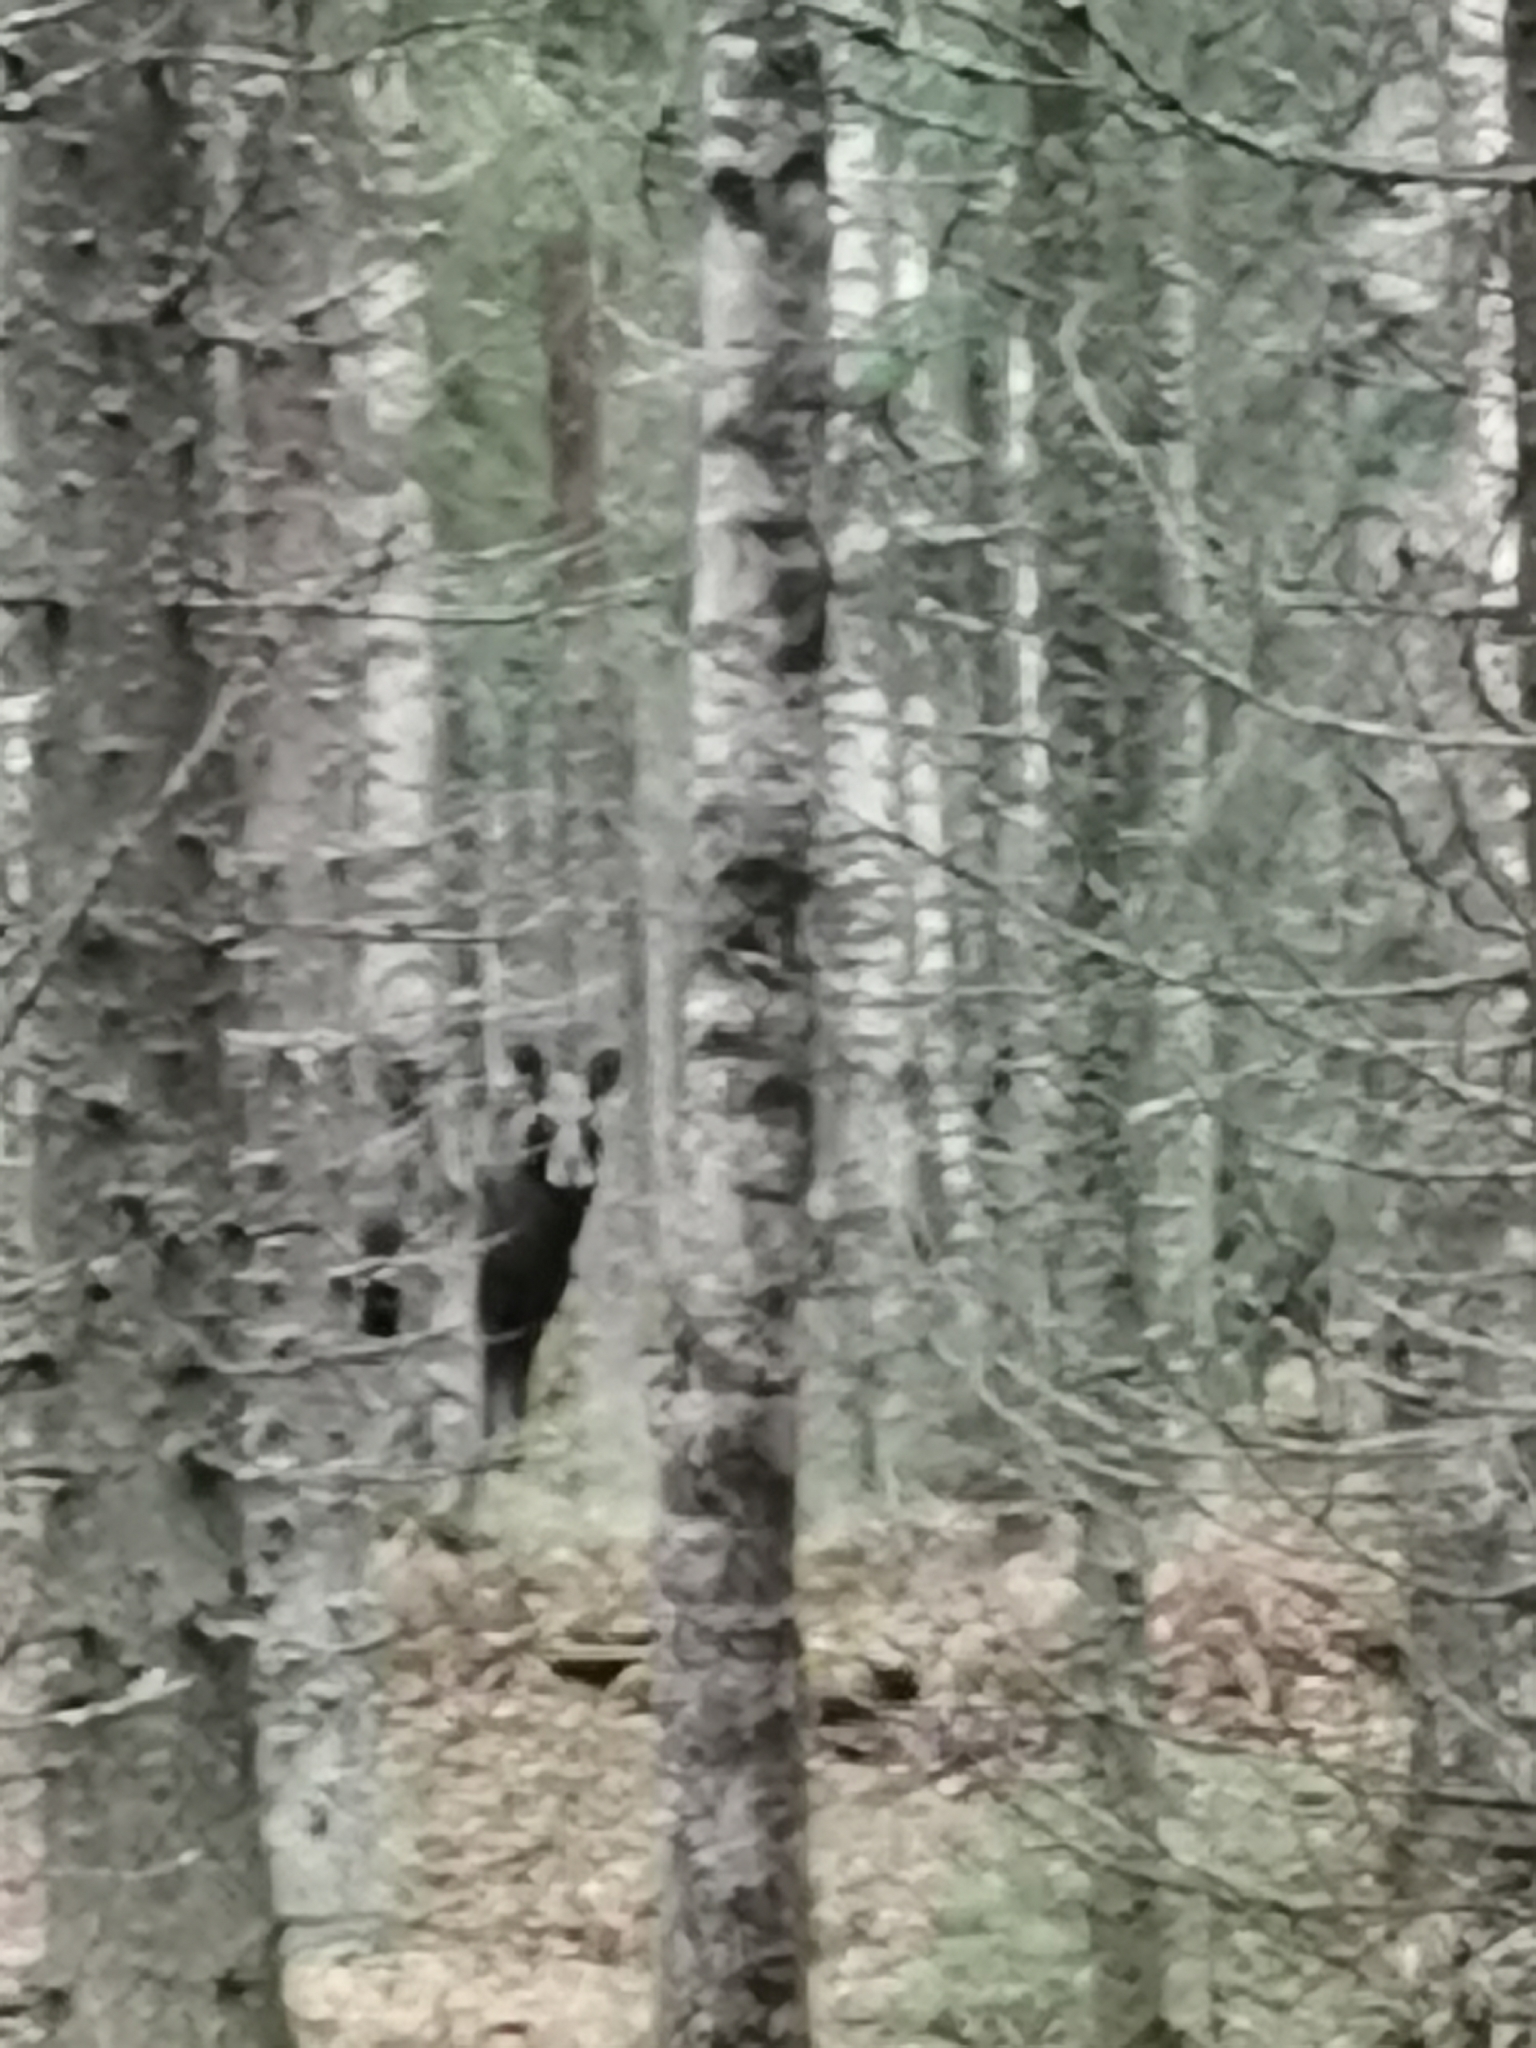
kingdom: Animalia
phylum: Chordata
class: Mammalia
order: Artiodactyla
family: Cervidae
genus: Alces
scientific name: Alces alces
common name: Moose
